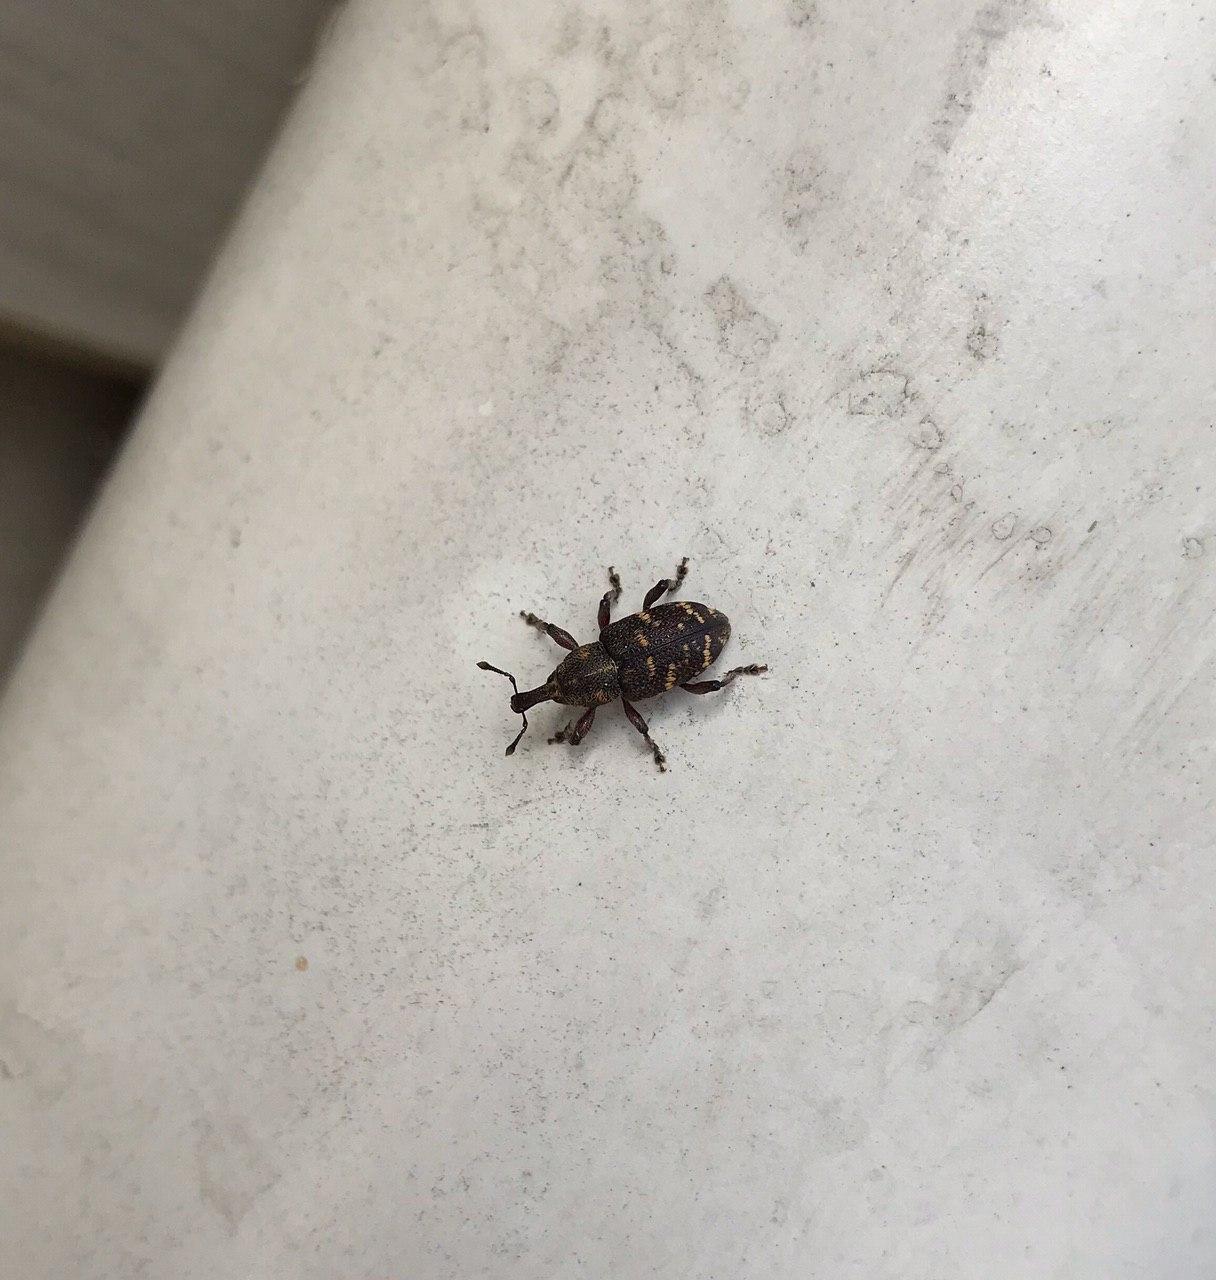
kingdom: Animalia
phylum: Arthropoda
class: Insecta
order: Coleoptera
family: Curculionidae
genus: Hylobius
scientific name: Hylobius abietis
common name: Large pine weevil
